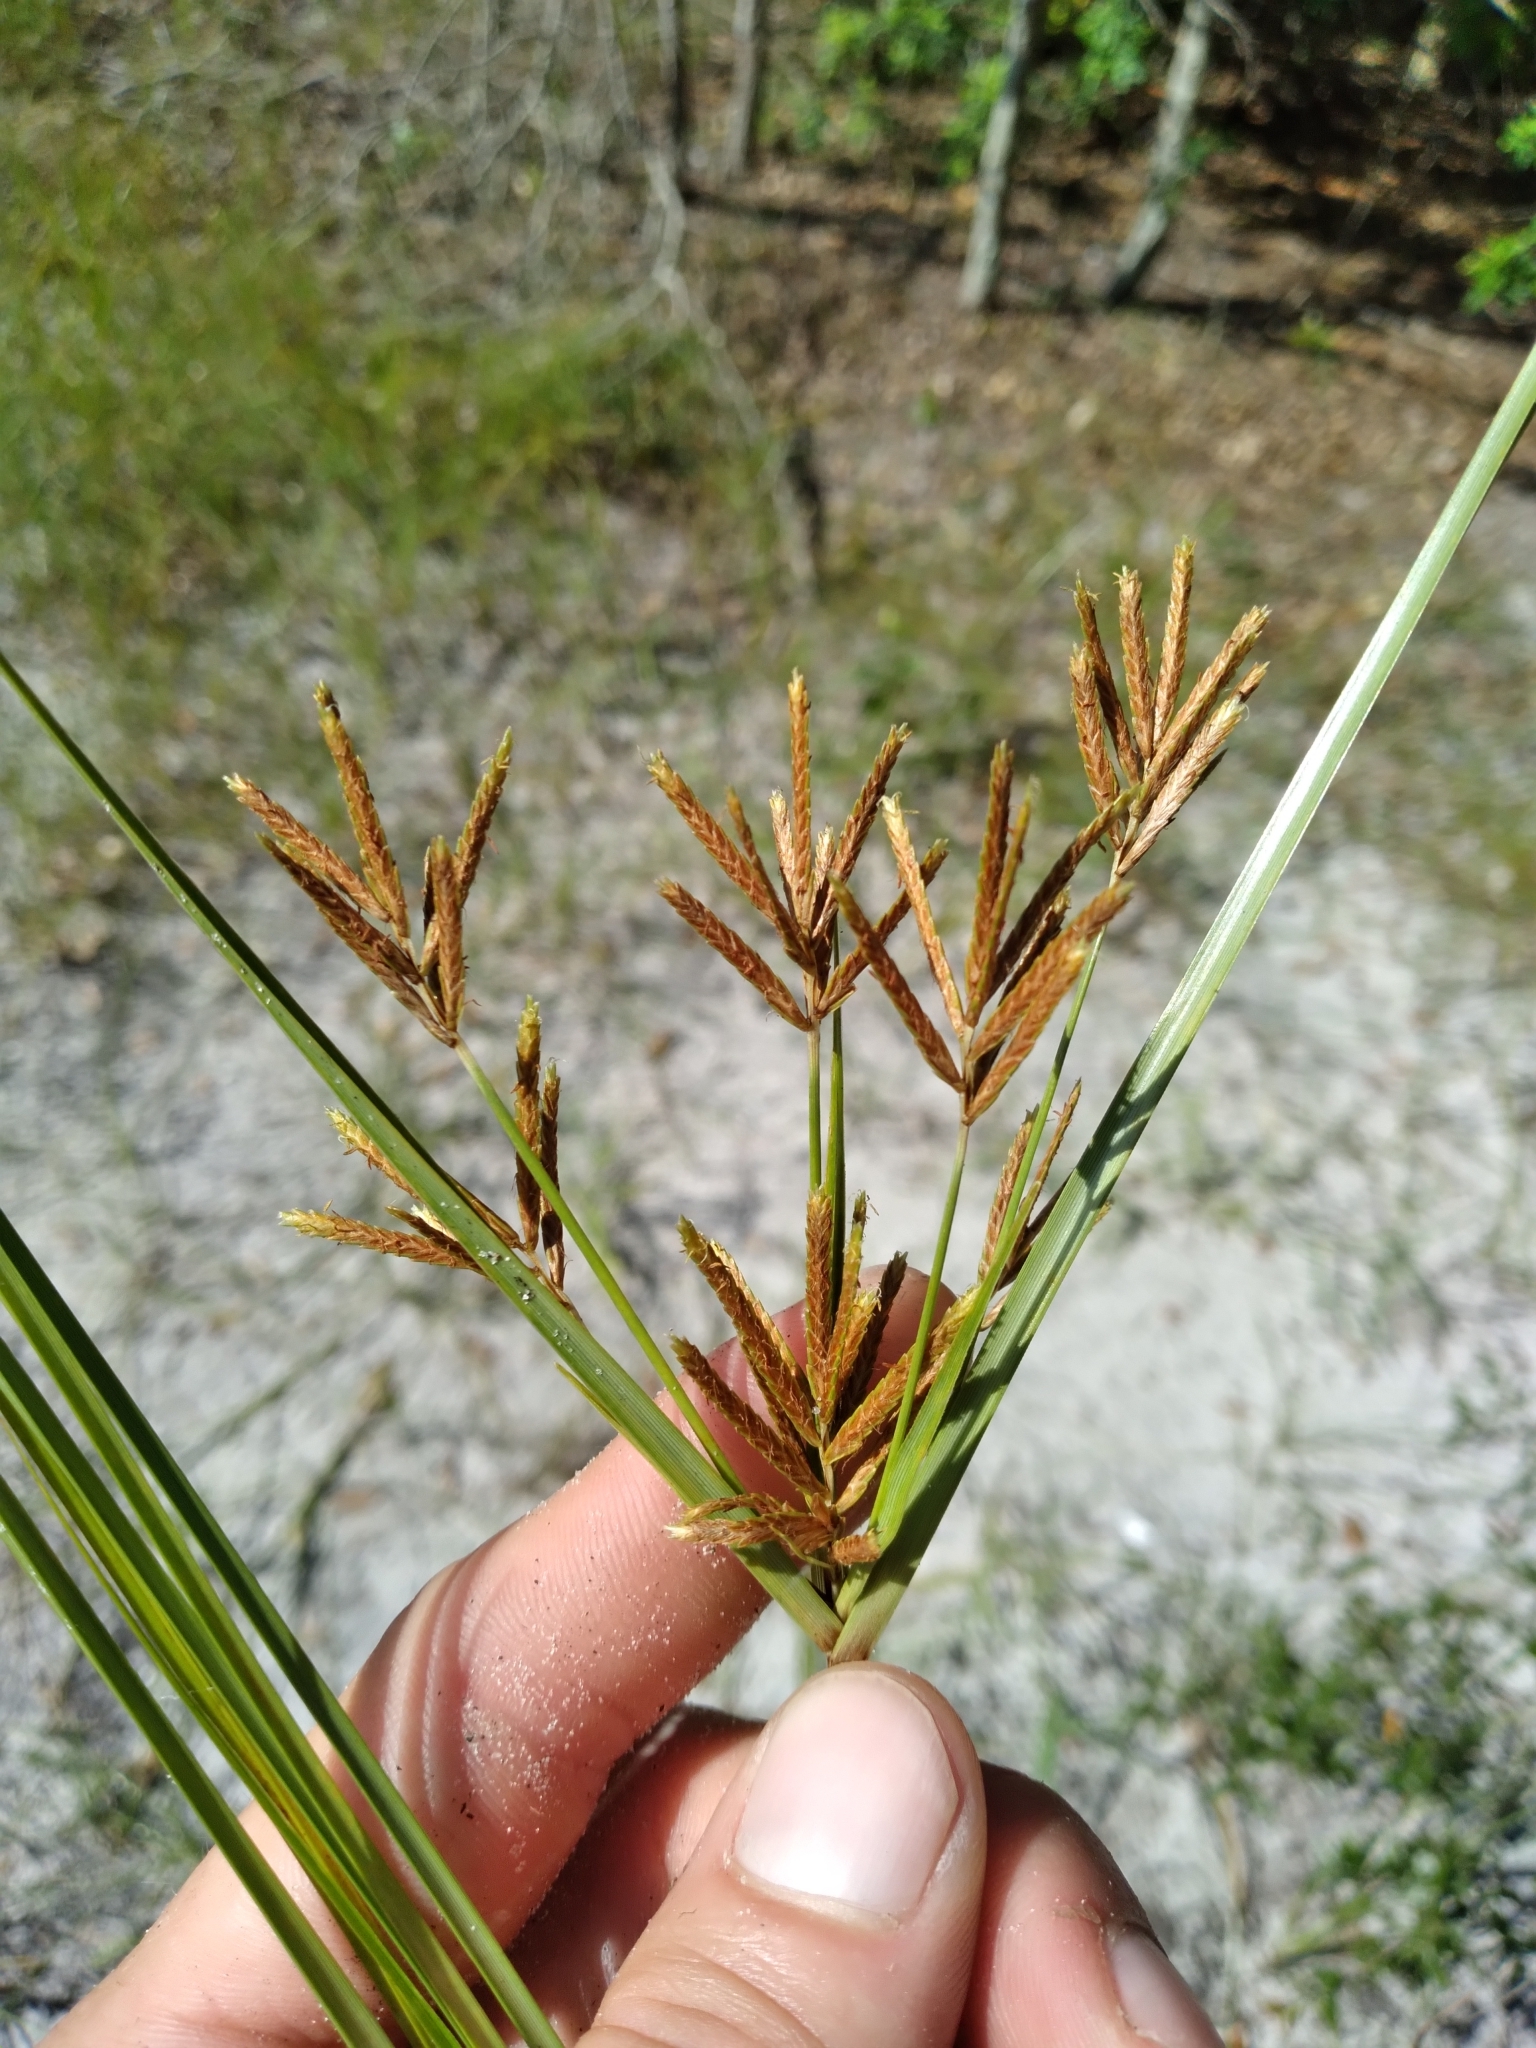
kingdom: Plantae
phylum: Tracheophyta
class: Liliopsida
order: Poales
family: Cyperaceae
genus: Cyperus
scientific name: Cyperus esculentus
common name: Yellow nutsedge
